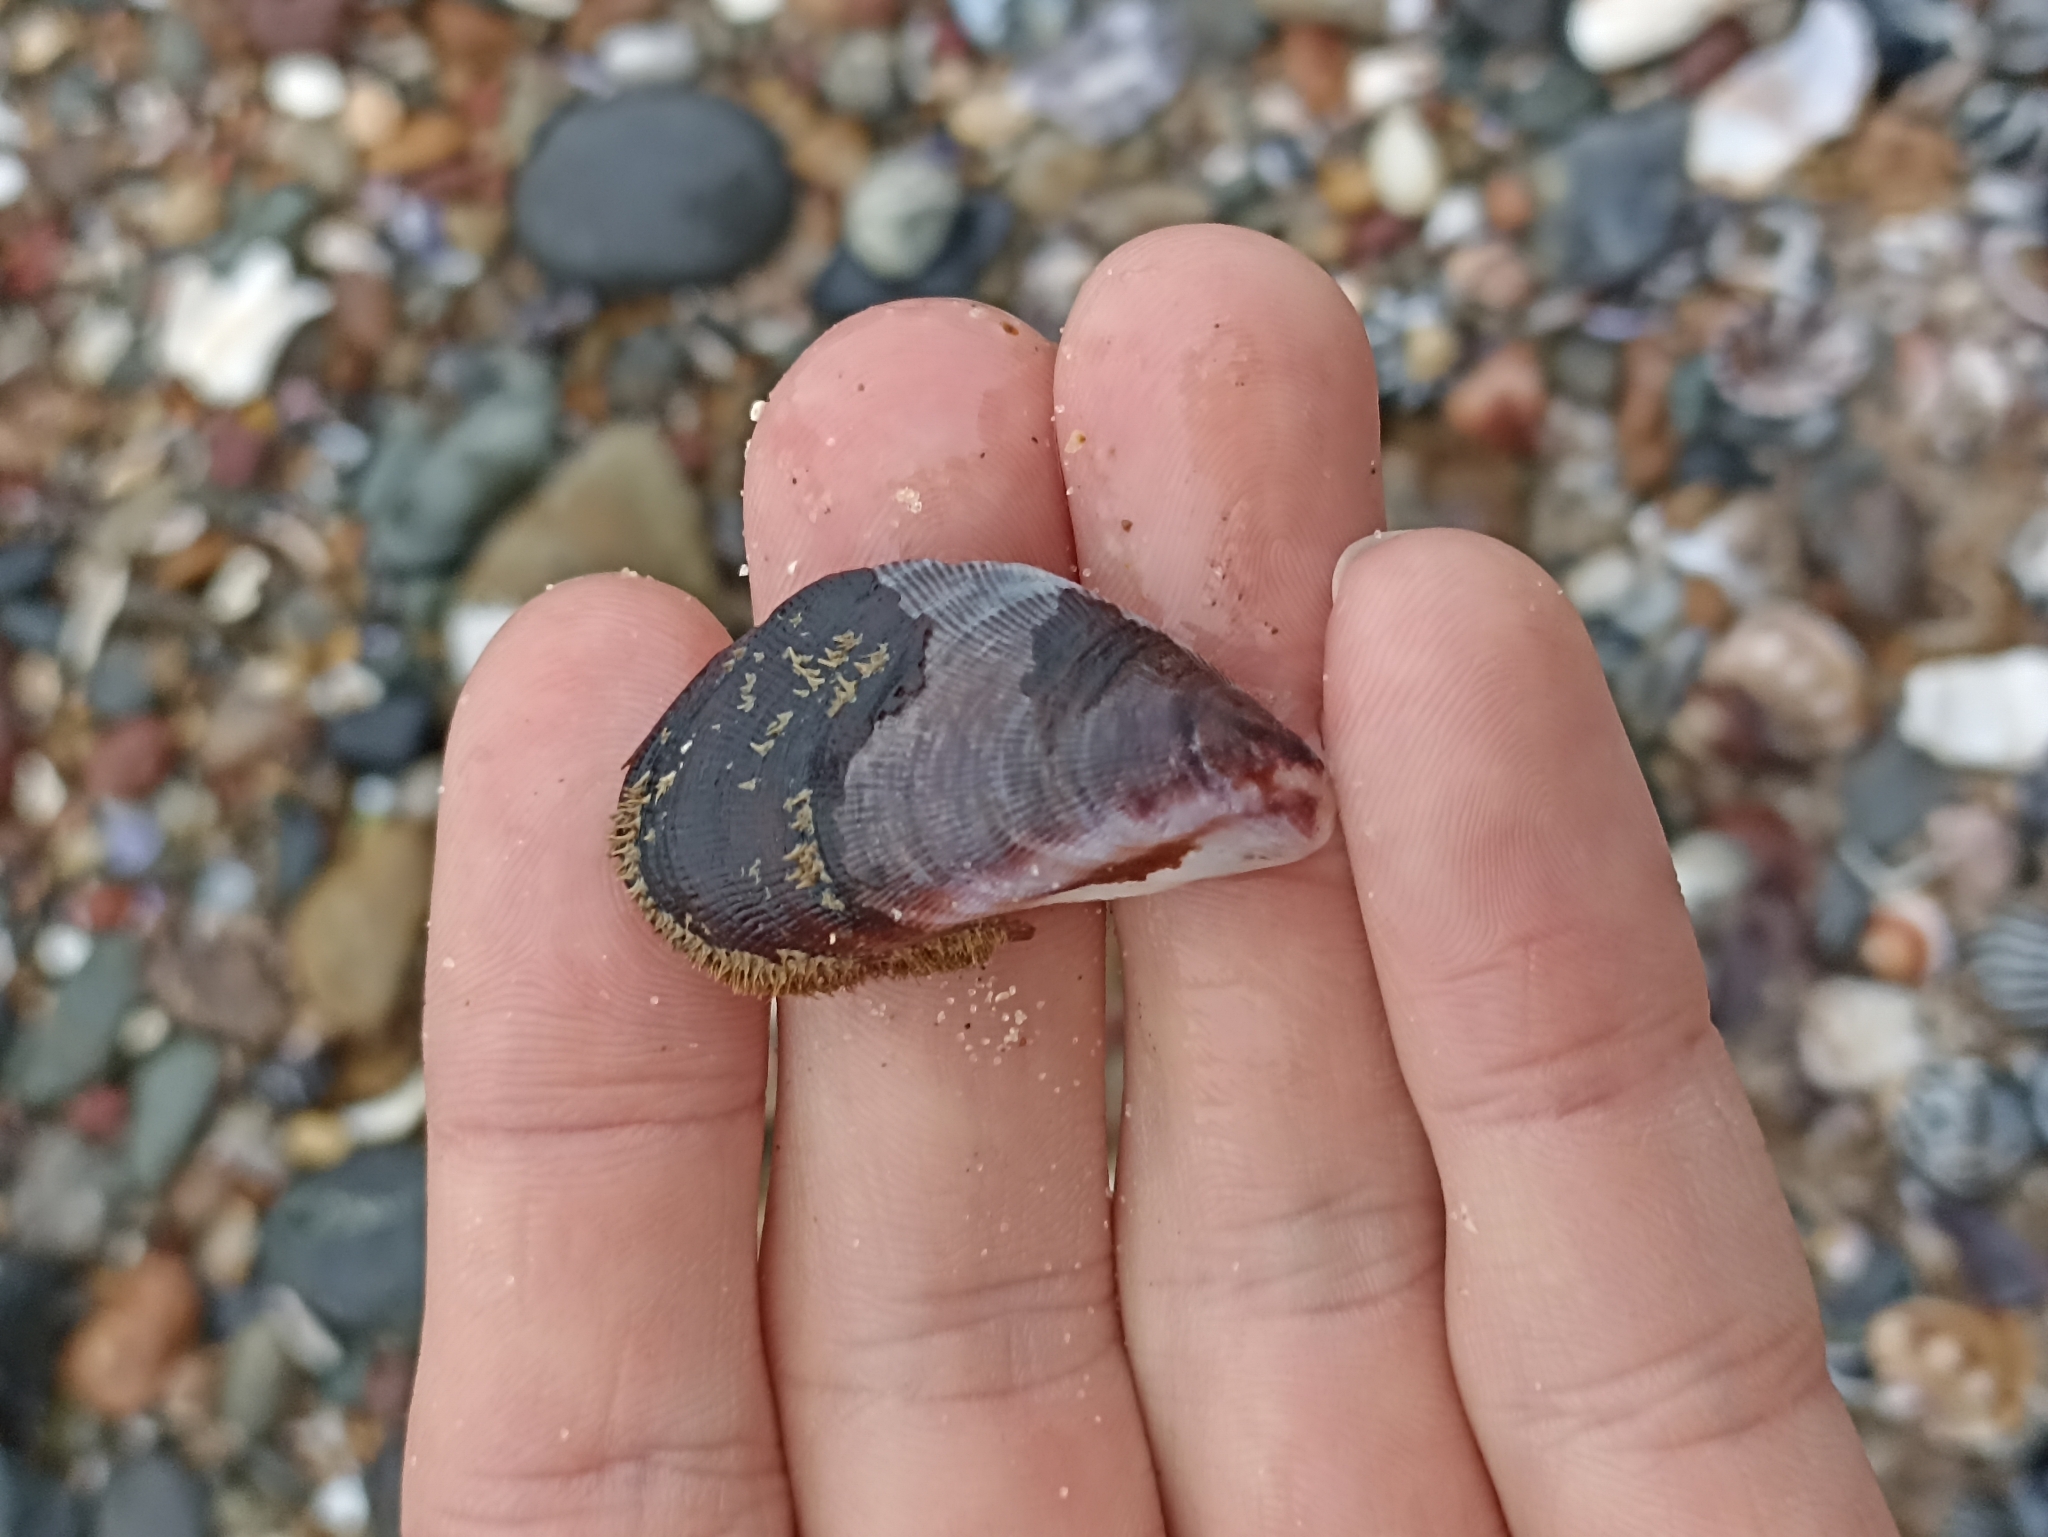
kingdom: Animalia
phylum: Mollusca
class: Bivalvia
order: Mytilida
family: Mytilidae
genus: Trichomya
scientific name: Trichomya hirsuta
